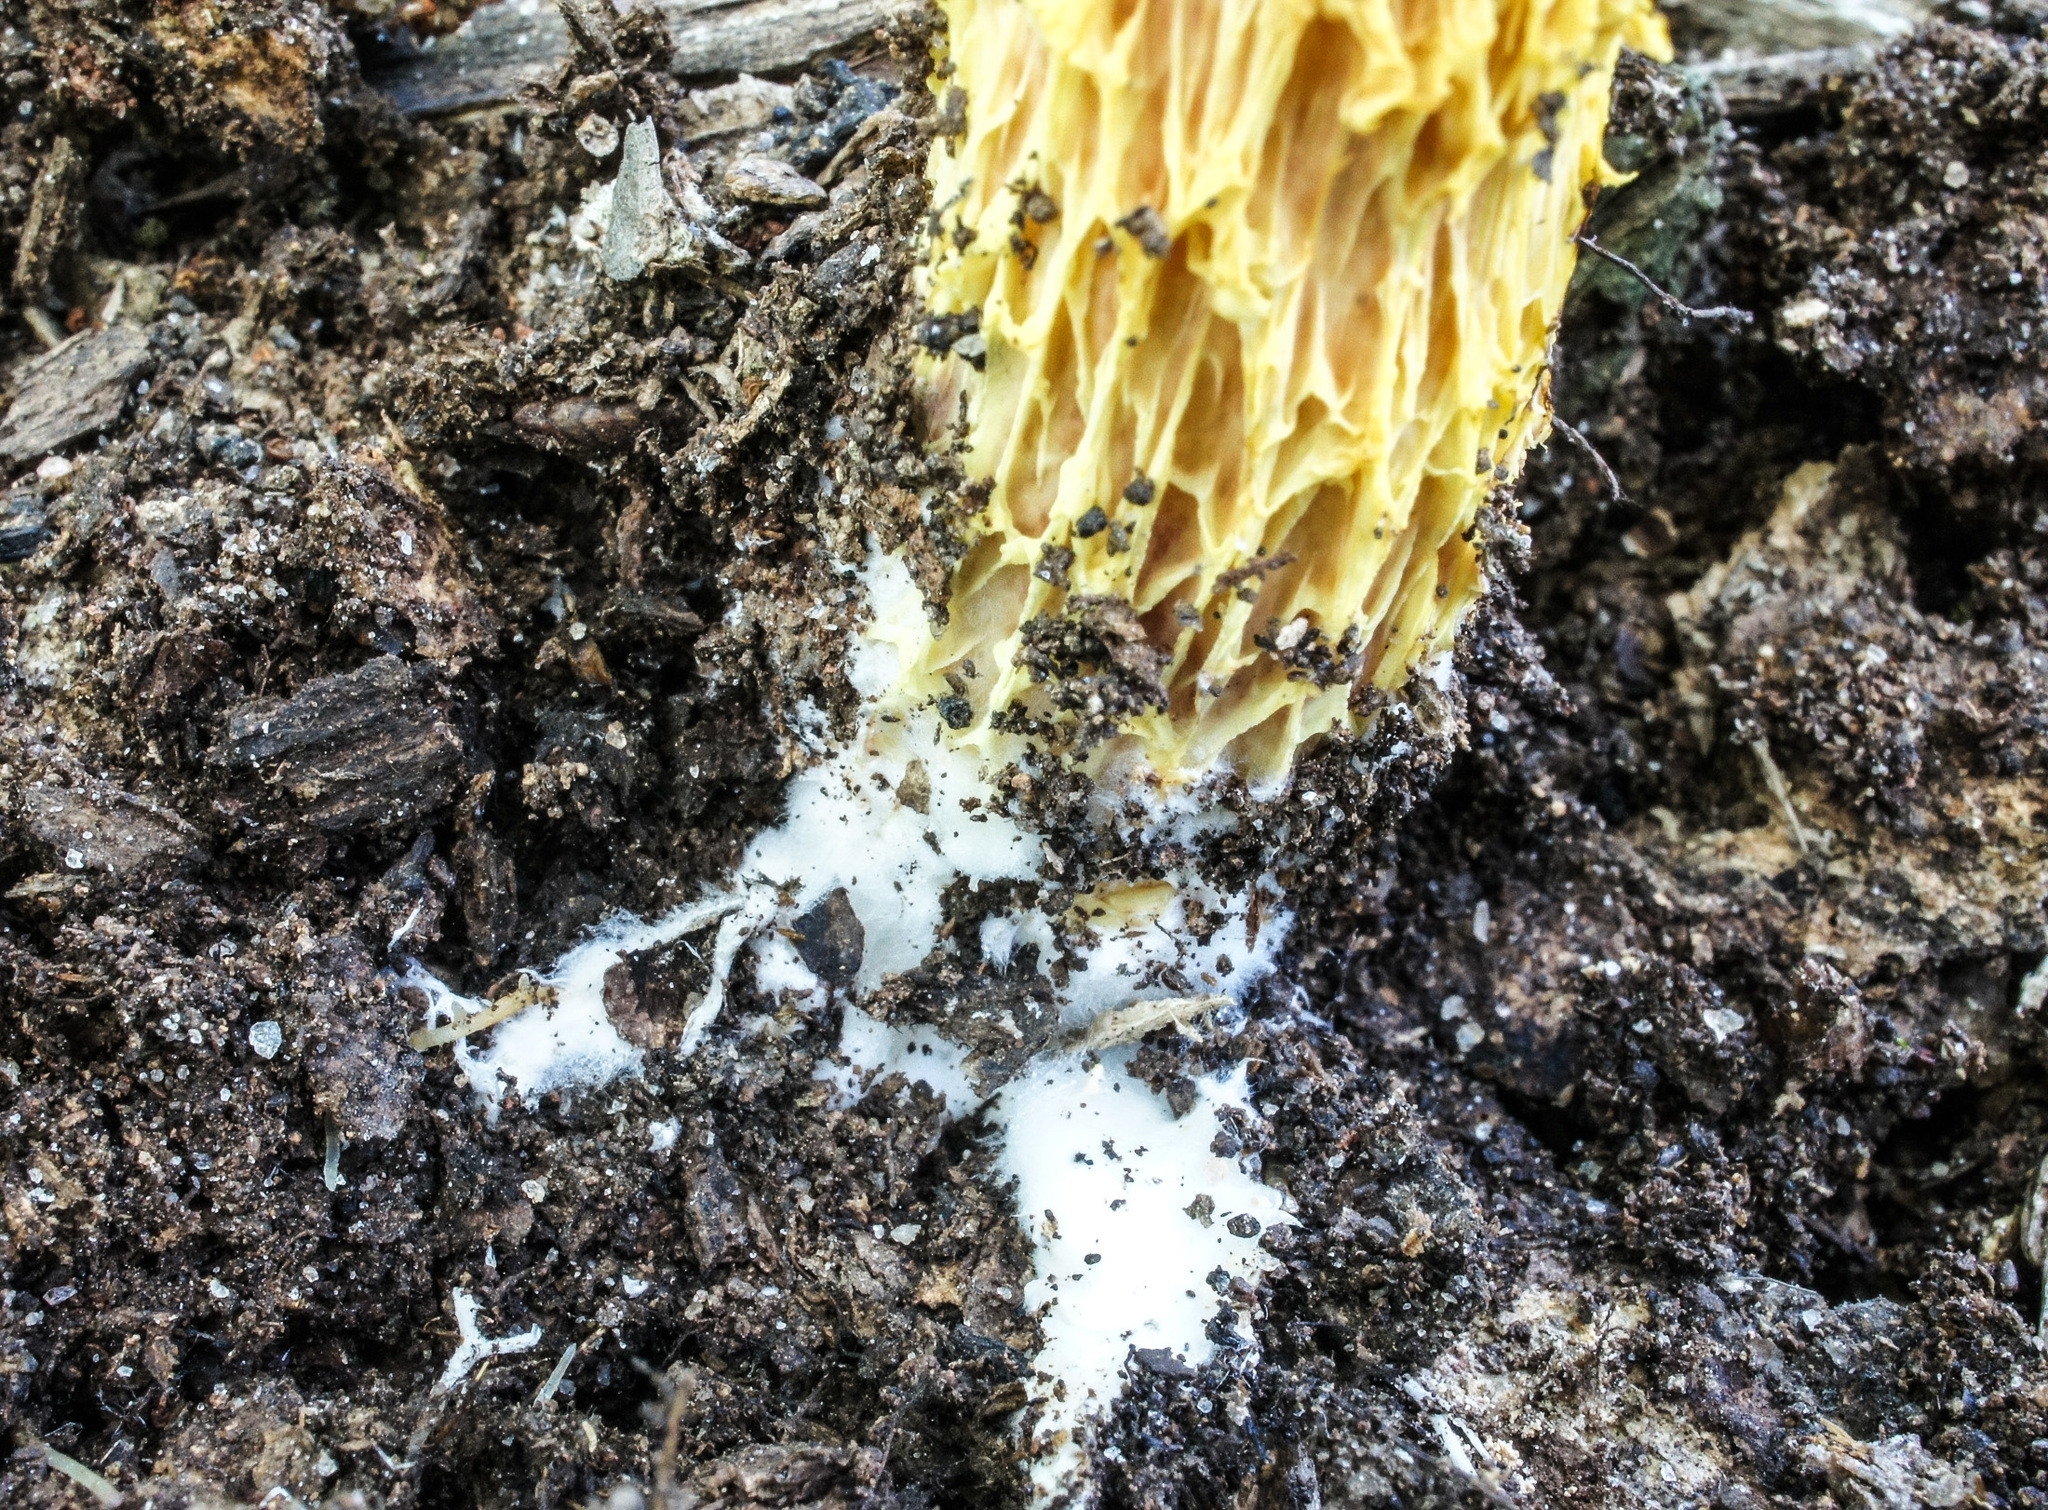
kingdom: Fungi
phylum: Basidiomycota
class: Agaricomycetes
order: Boletales
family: Boletaceae
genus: Aureoboletus
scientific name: Aureoboletus betula
